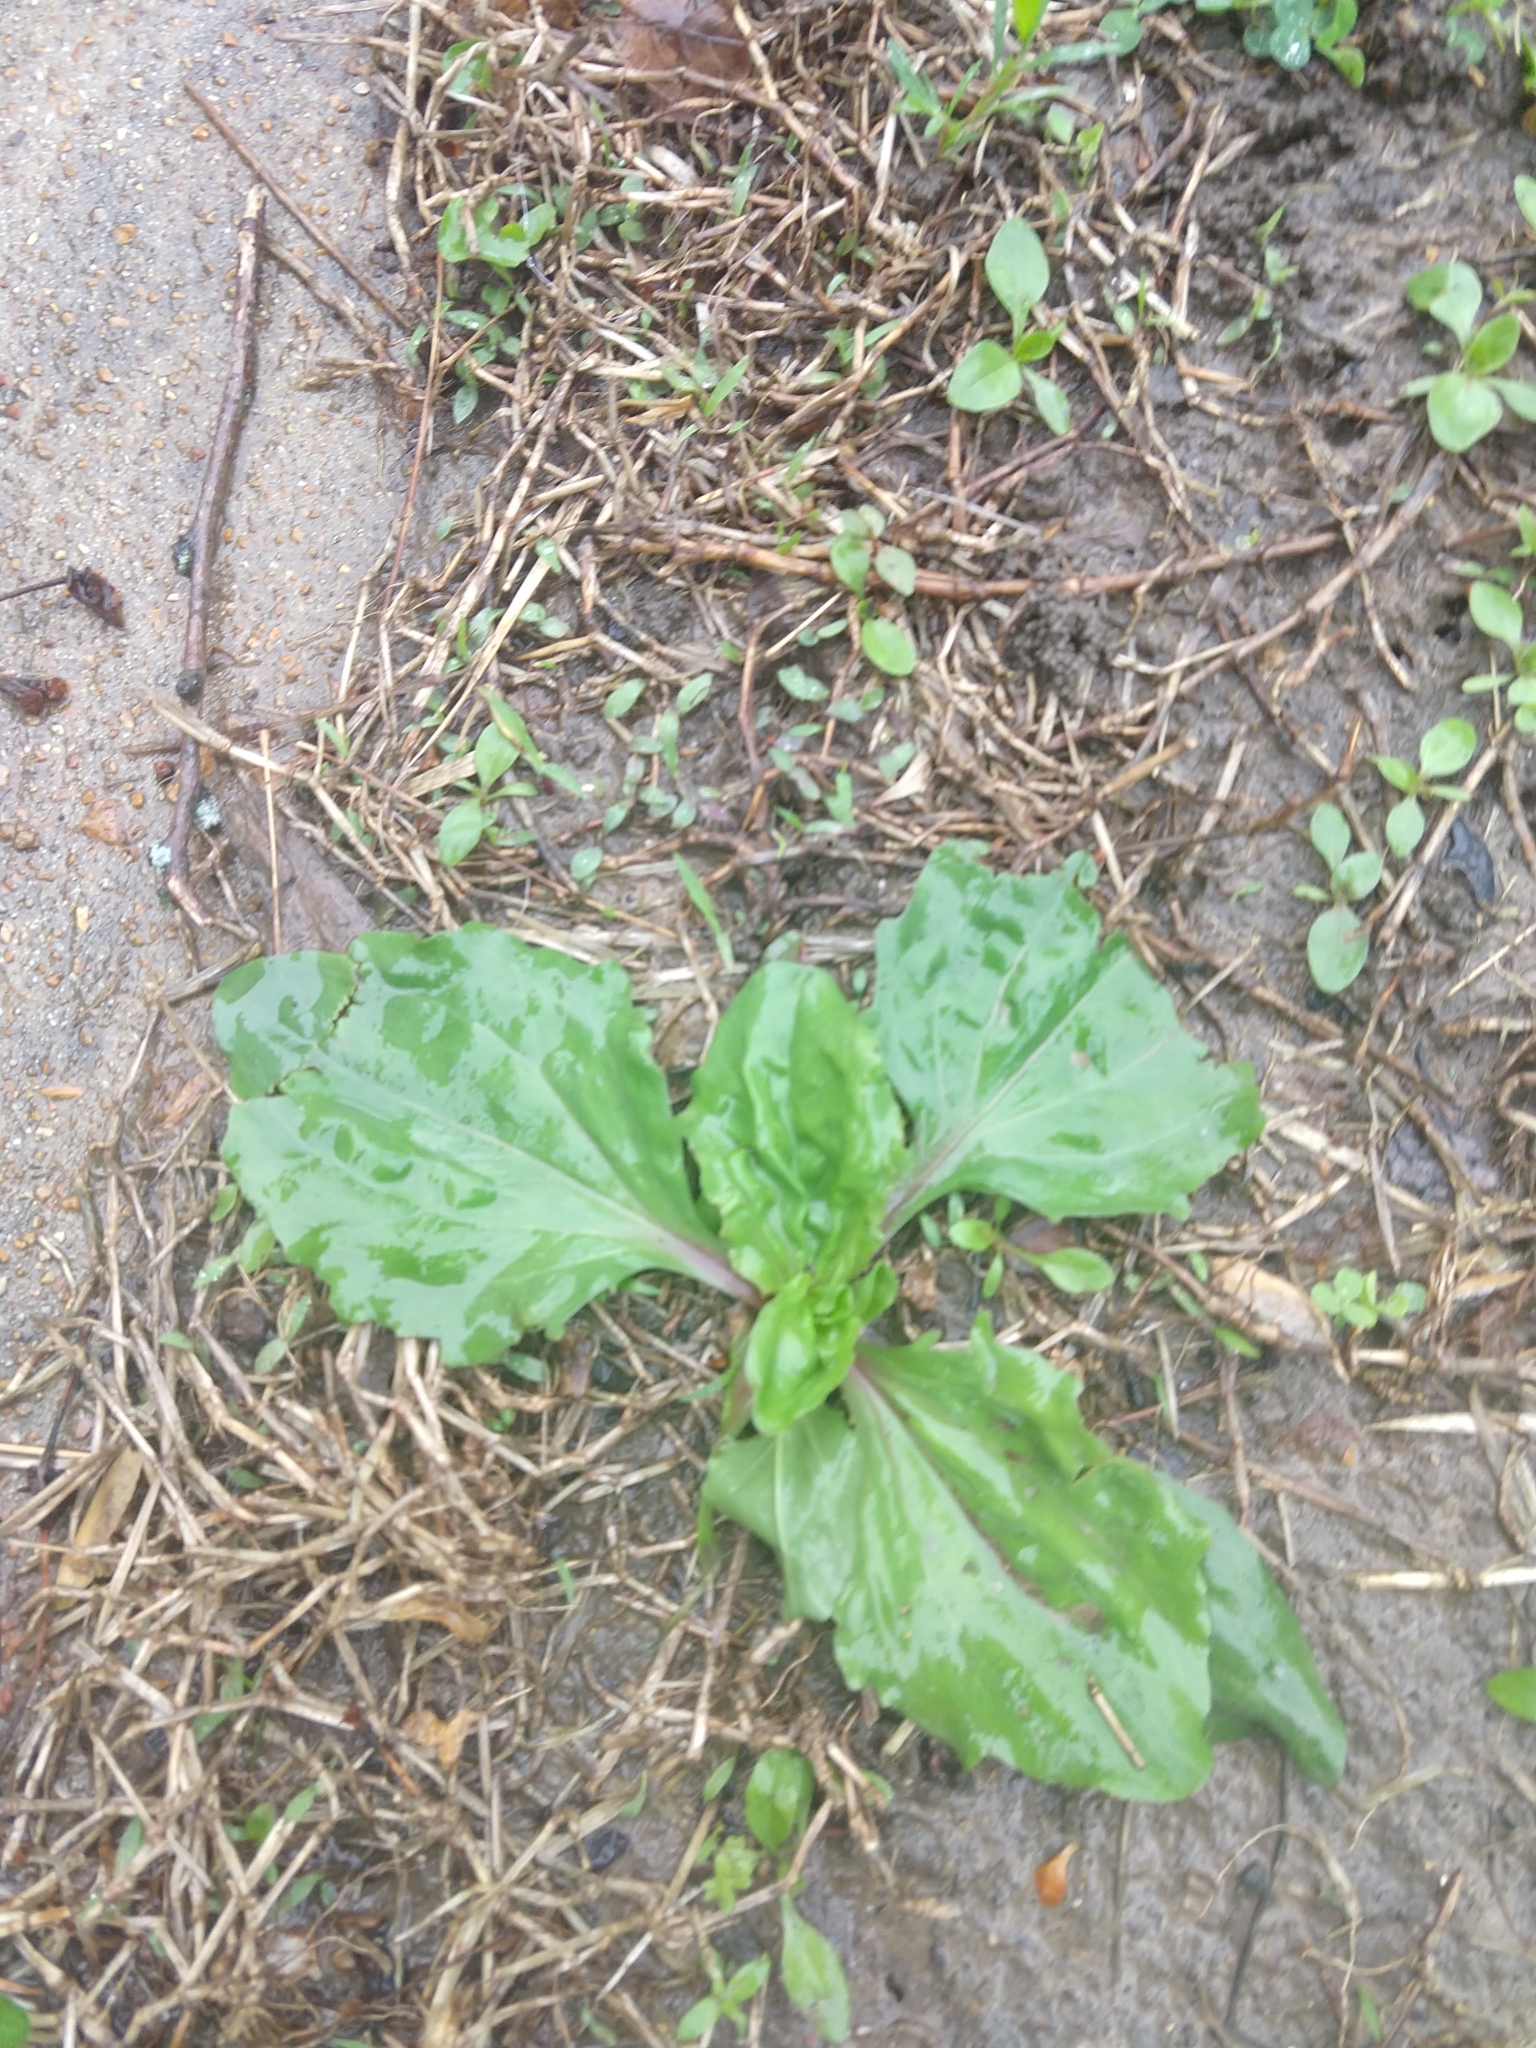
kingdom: Plantae
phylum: Tracheophyta
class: Magnoliopsida
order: Lamiales
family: Plantaginaceae
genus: Plantago
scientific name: Plantago rugelii
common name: American plantain
